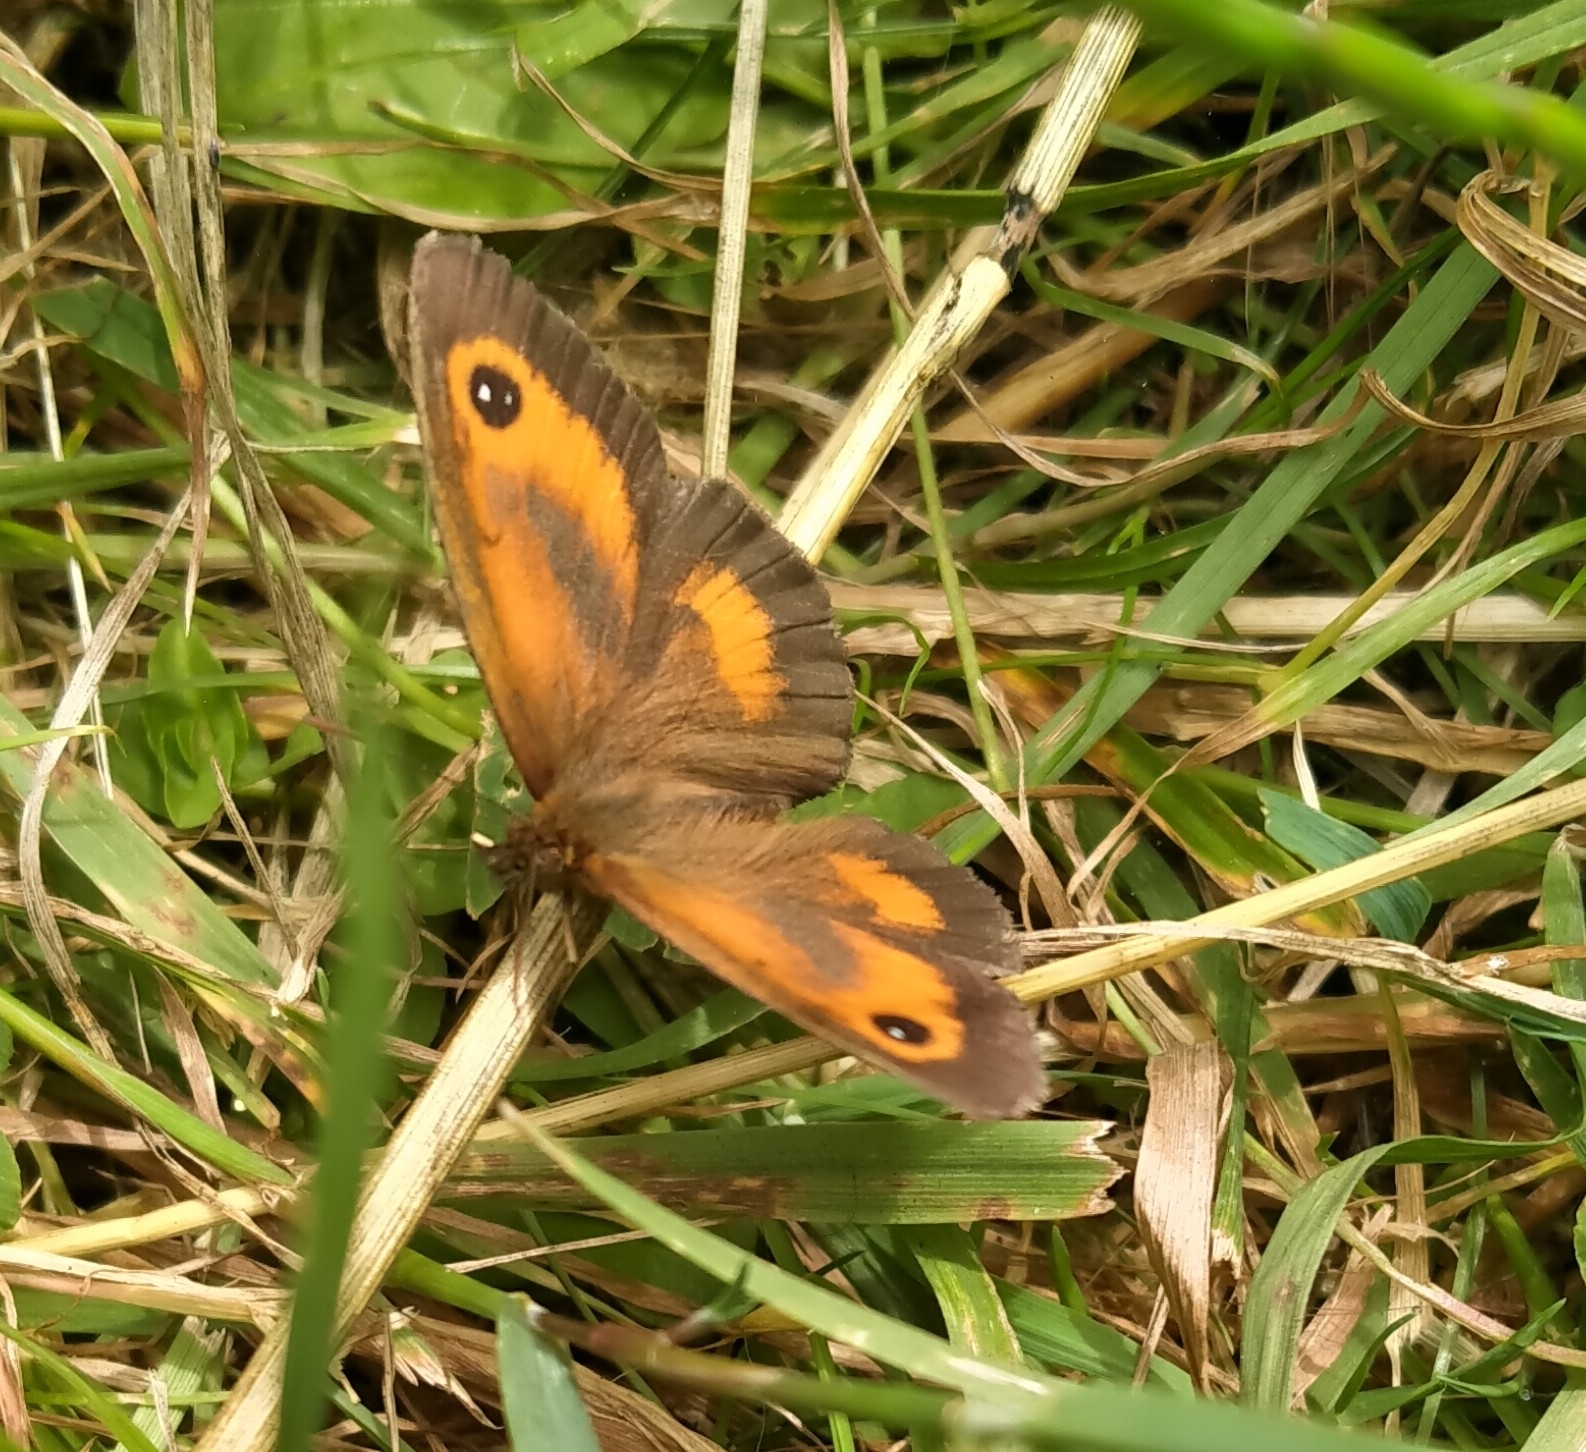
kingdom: Animalia
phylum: Arthropoda
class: Insecta
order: Lepidoptera
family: Nymphalidae
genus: Pyronia
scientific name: Pyronia tithonus
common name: Gatekeeper
